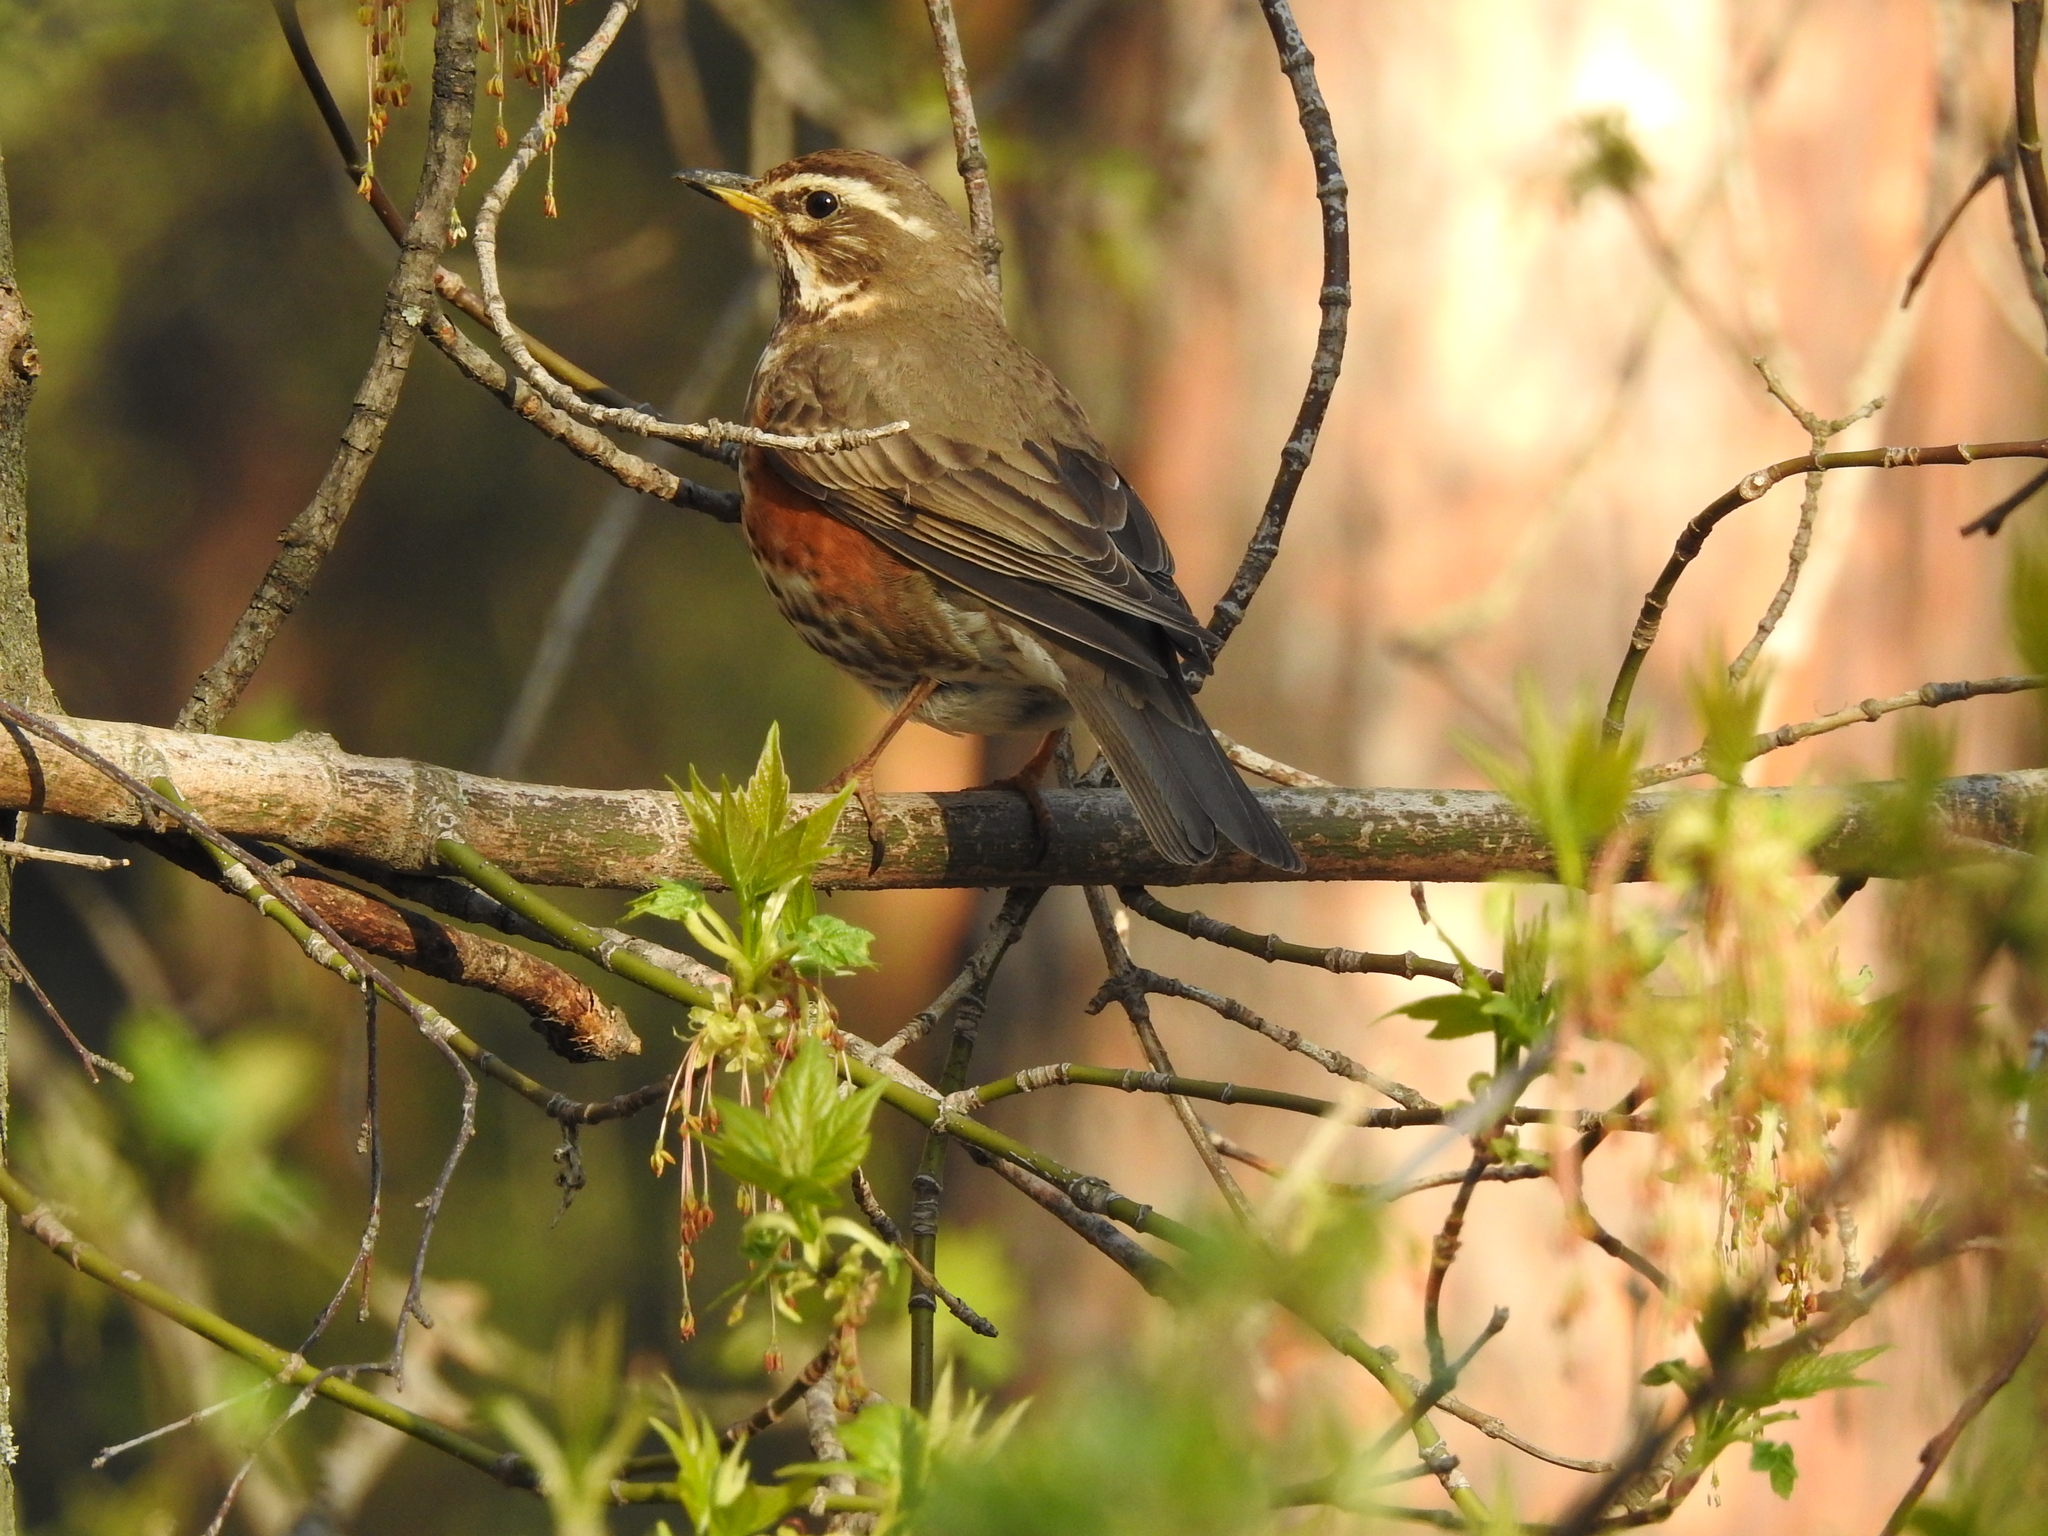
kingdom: Animalia
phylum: Chordata
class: Aves
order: Passeriformes
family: Turdidae
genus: Turdus
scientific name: Turdus iliacus
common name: Redwing
